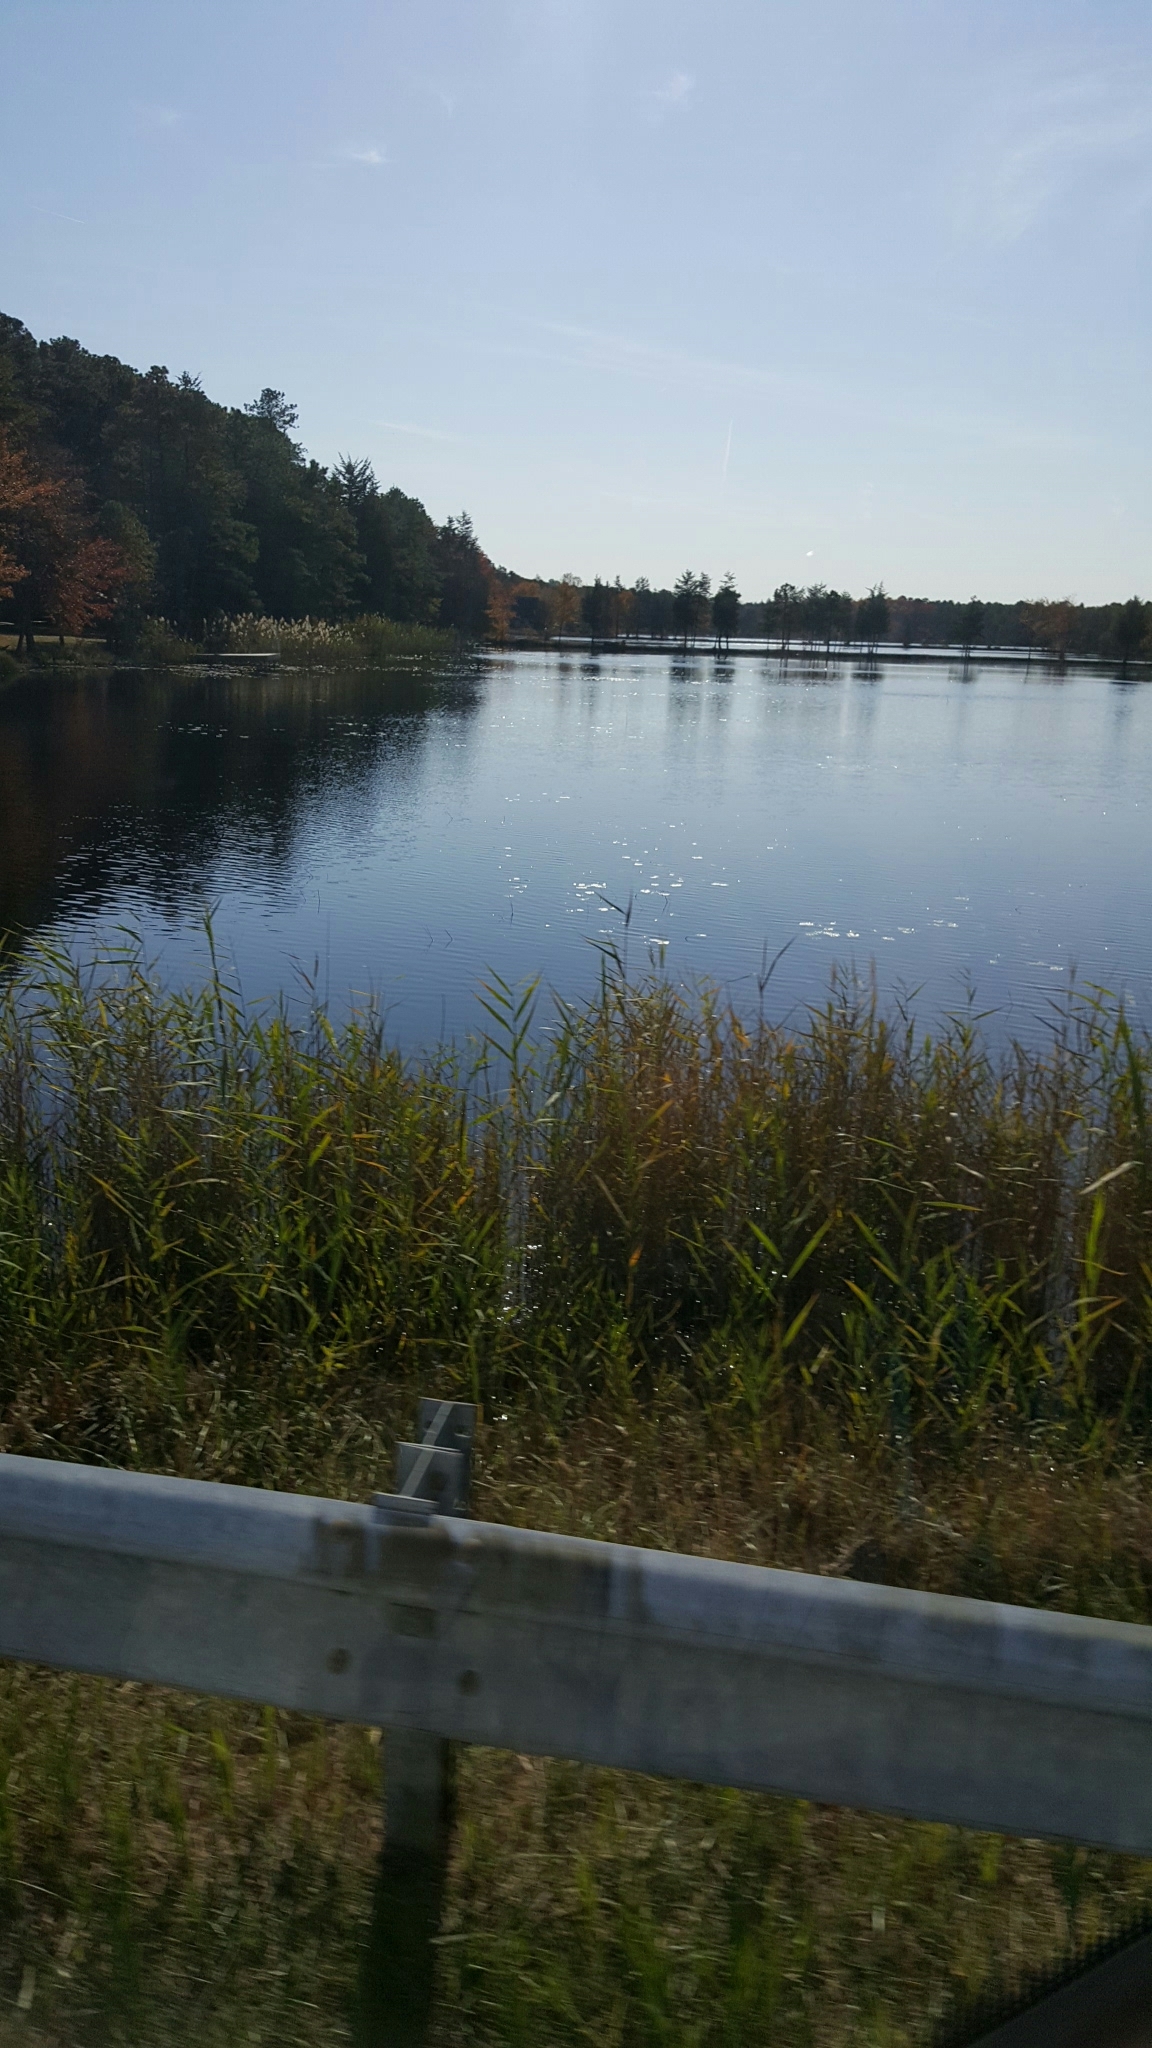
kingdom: Plantae
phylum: Tracheophyta
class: Liliopsida
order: Poales
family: Poaceae
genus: Phragmites
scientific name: Phragmites australis
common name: Common reed
